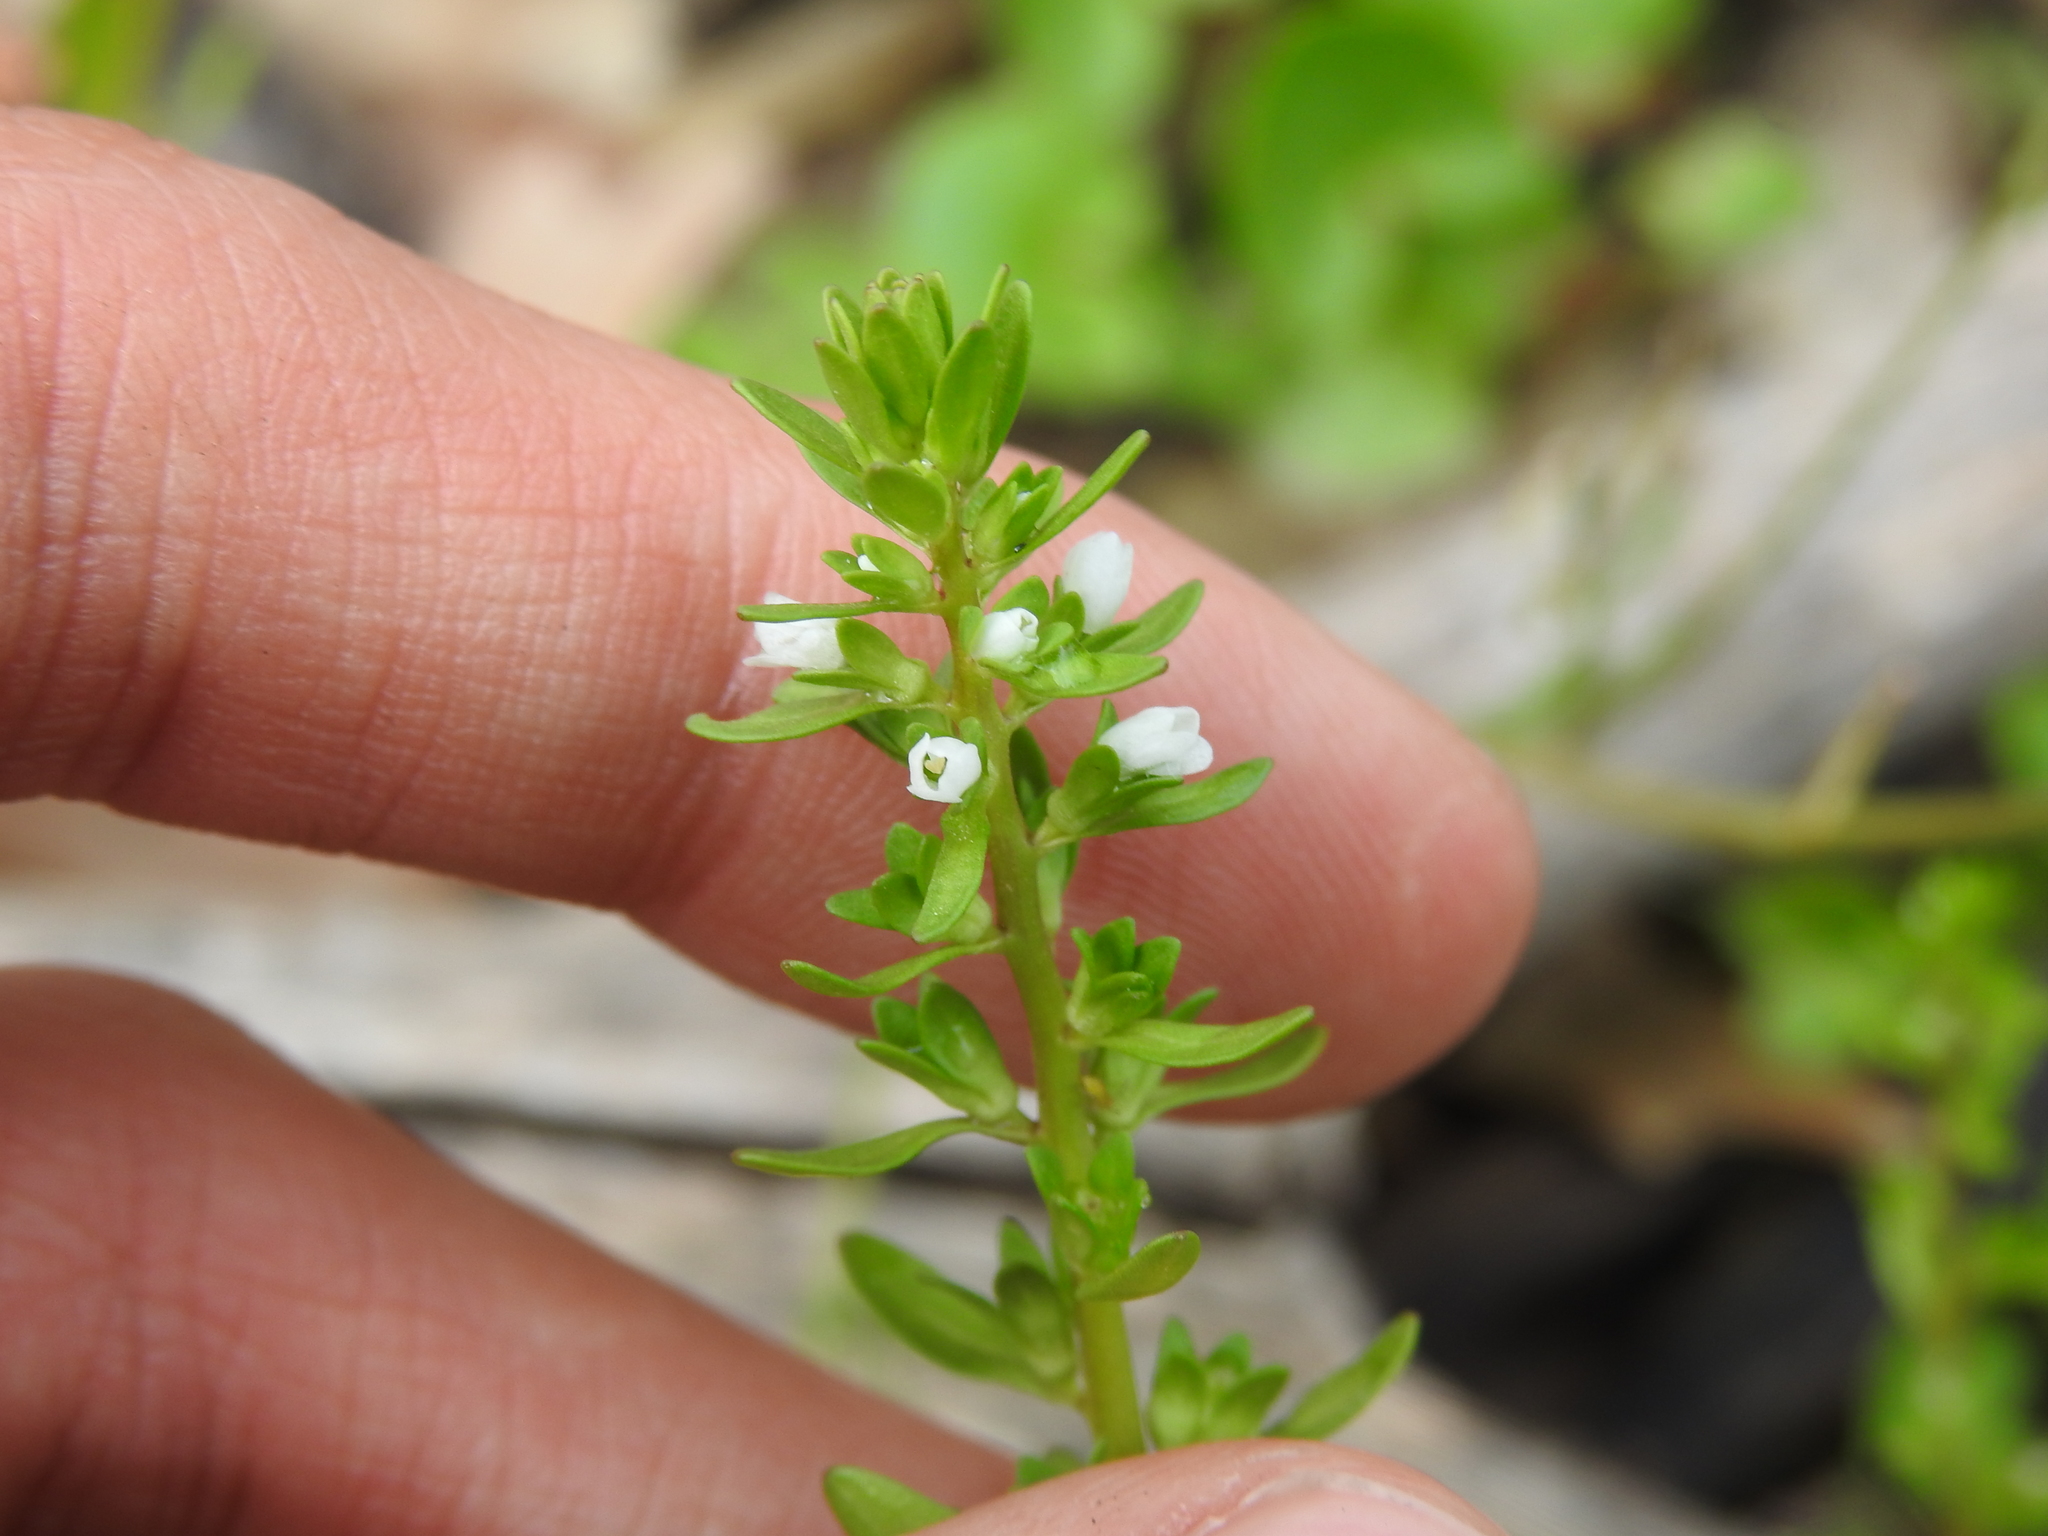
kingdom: Plantae
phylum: Tracheophyta
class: Magnoliopsida
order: Lamiales
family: Plantaginaceae
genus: Veronica
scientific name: Veronica peregrina
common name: Neckweed
